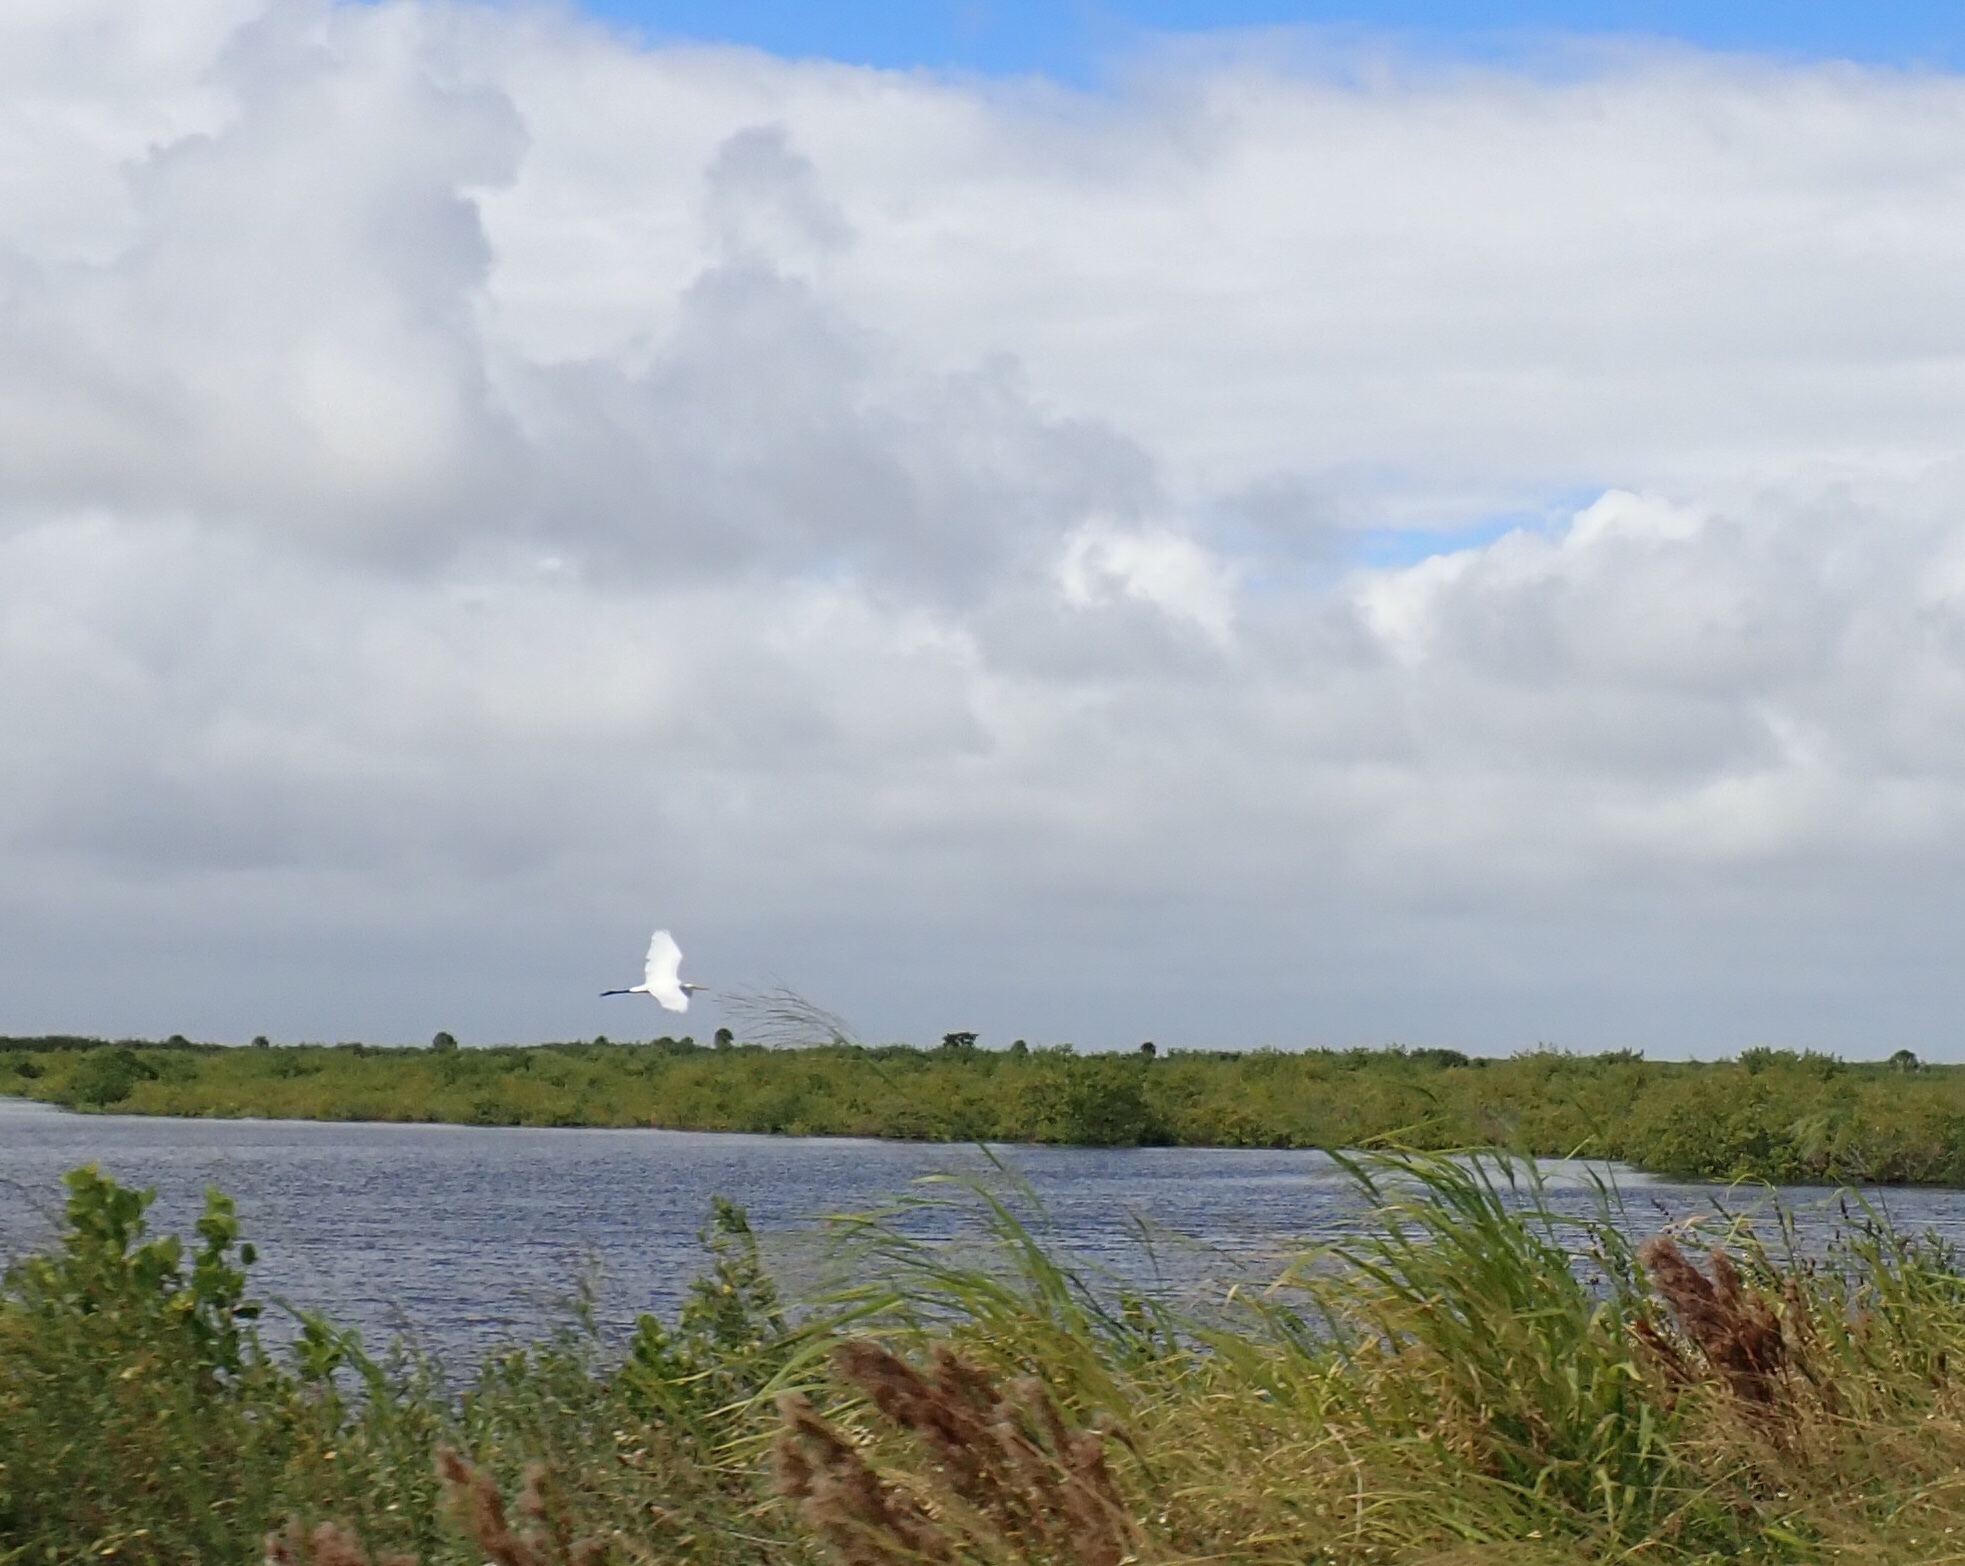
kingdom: Animalia
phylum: Chordata
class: Aves
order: Pelecaniformes
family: Ardeidae
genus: Ardea
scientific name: Ardea alba
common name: Great egret
